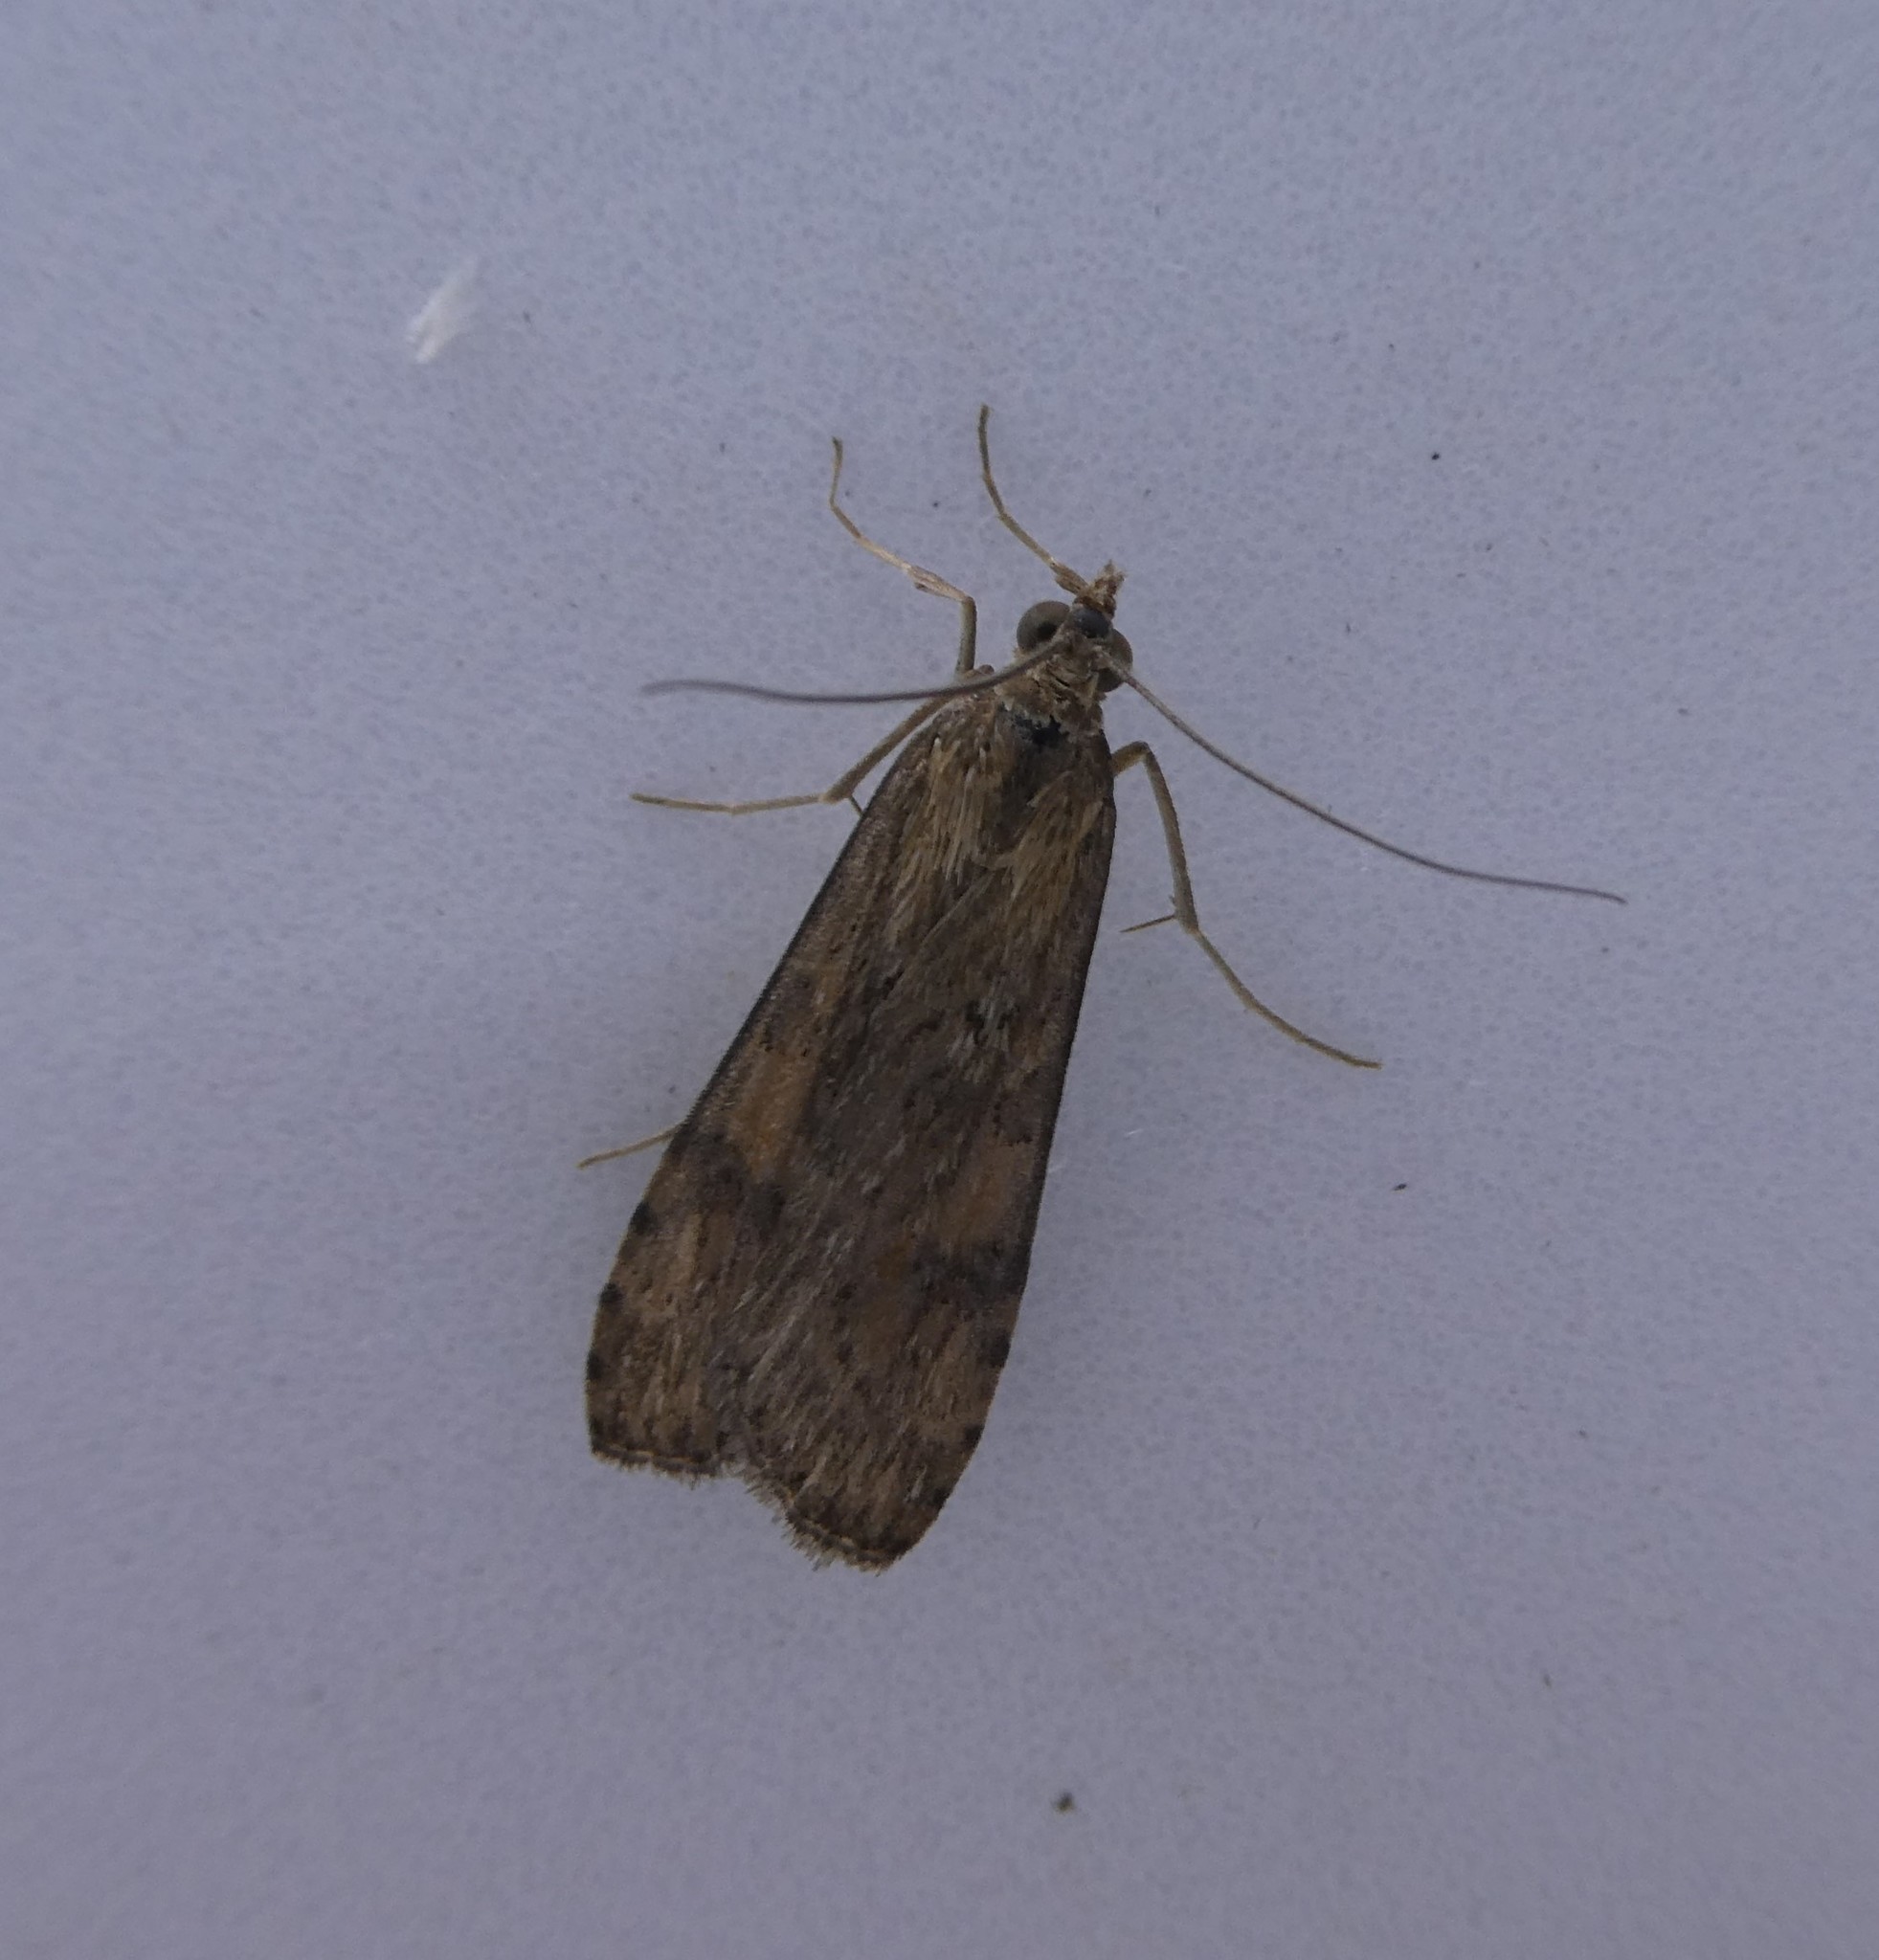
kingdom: Animalia
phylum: Arthropoda
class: Insecta
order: Lepidoptera
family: Crambidae
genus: Nomophila
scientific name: Nomophila nearctica
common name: American rush veneer
